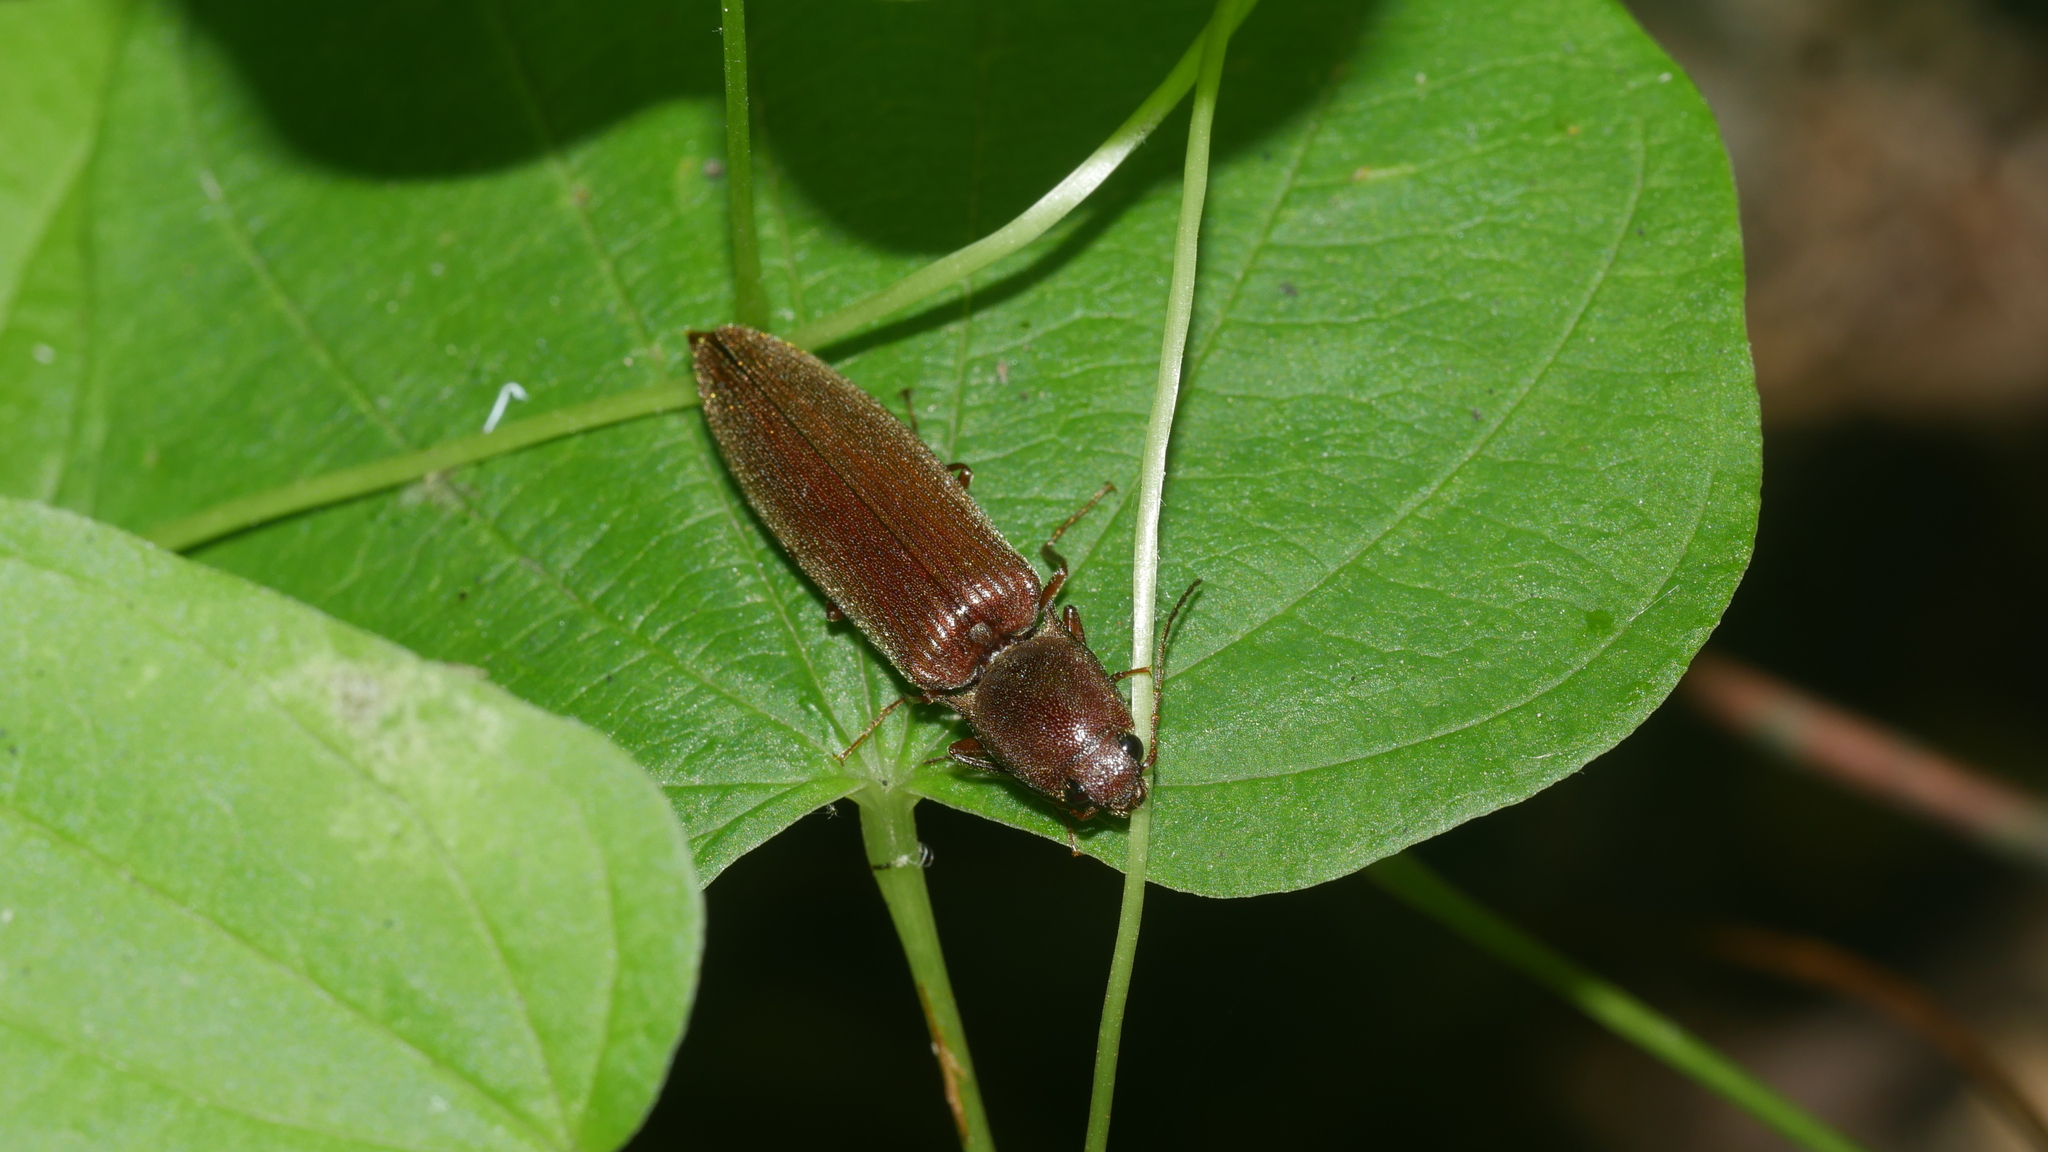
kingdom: Animalia
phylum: Arthropoda
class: Insecta
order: Coleoptera
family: Elateridae
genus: Proludius
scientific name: Proludius pyrros
